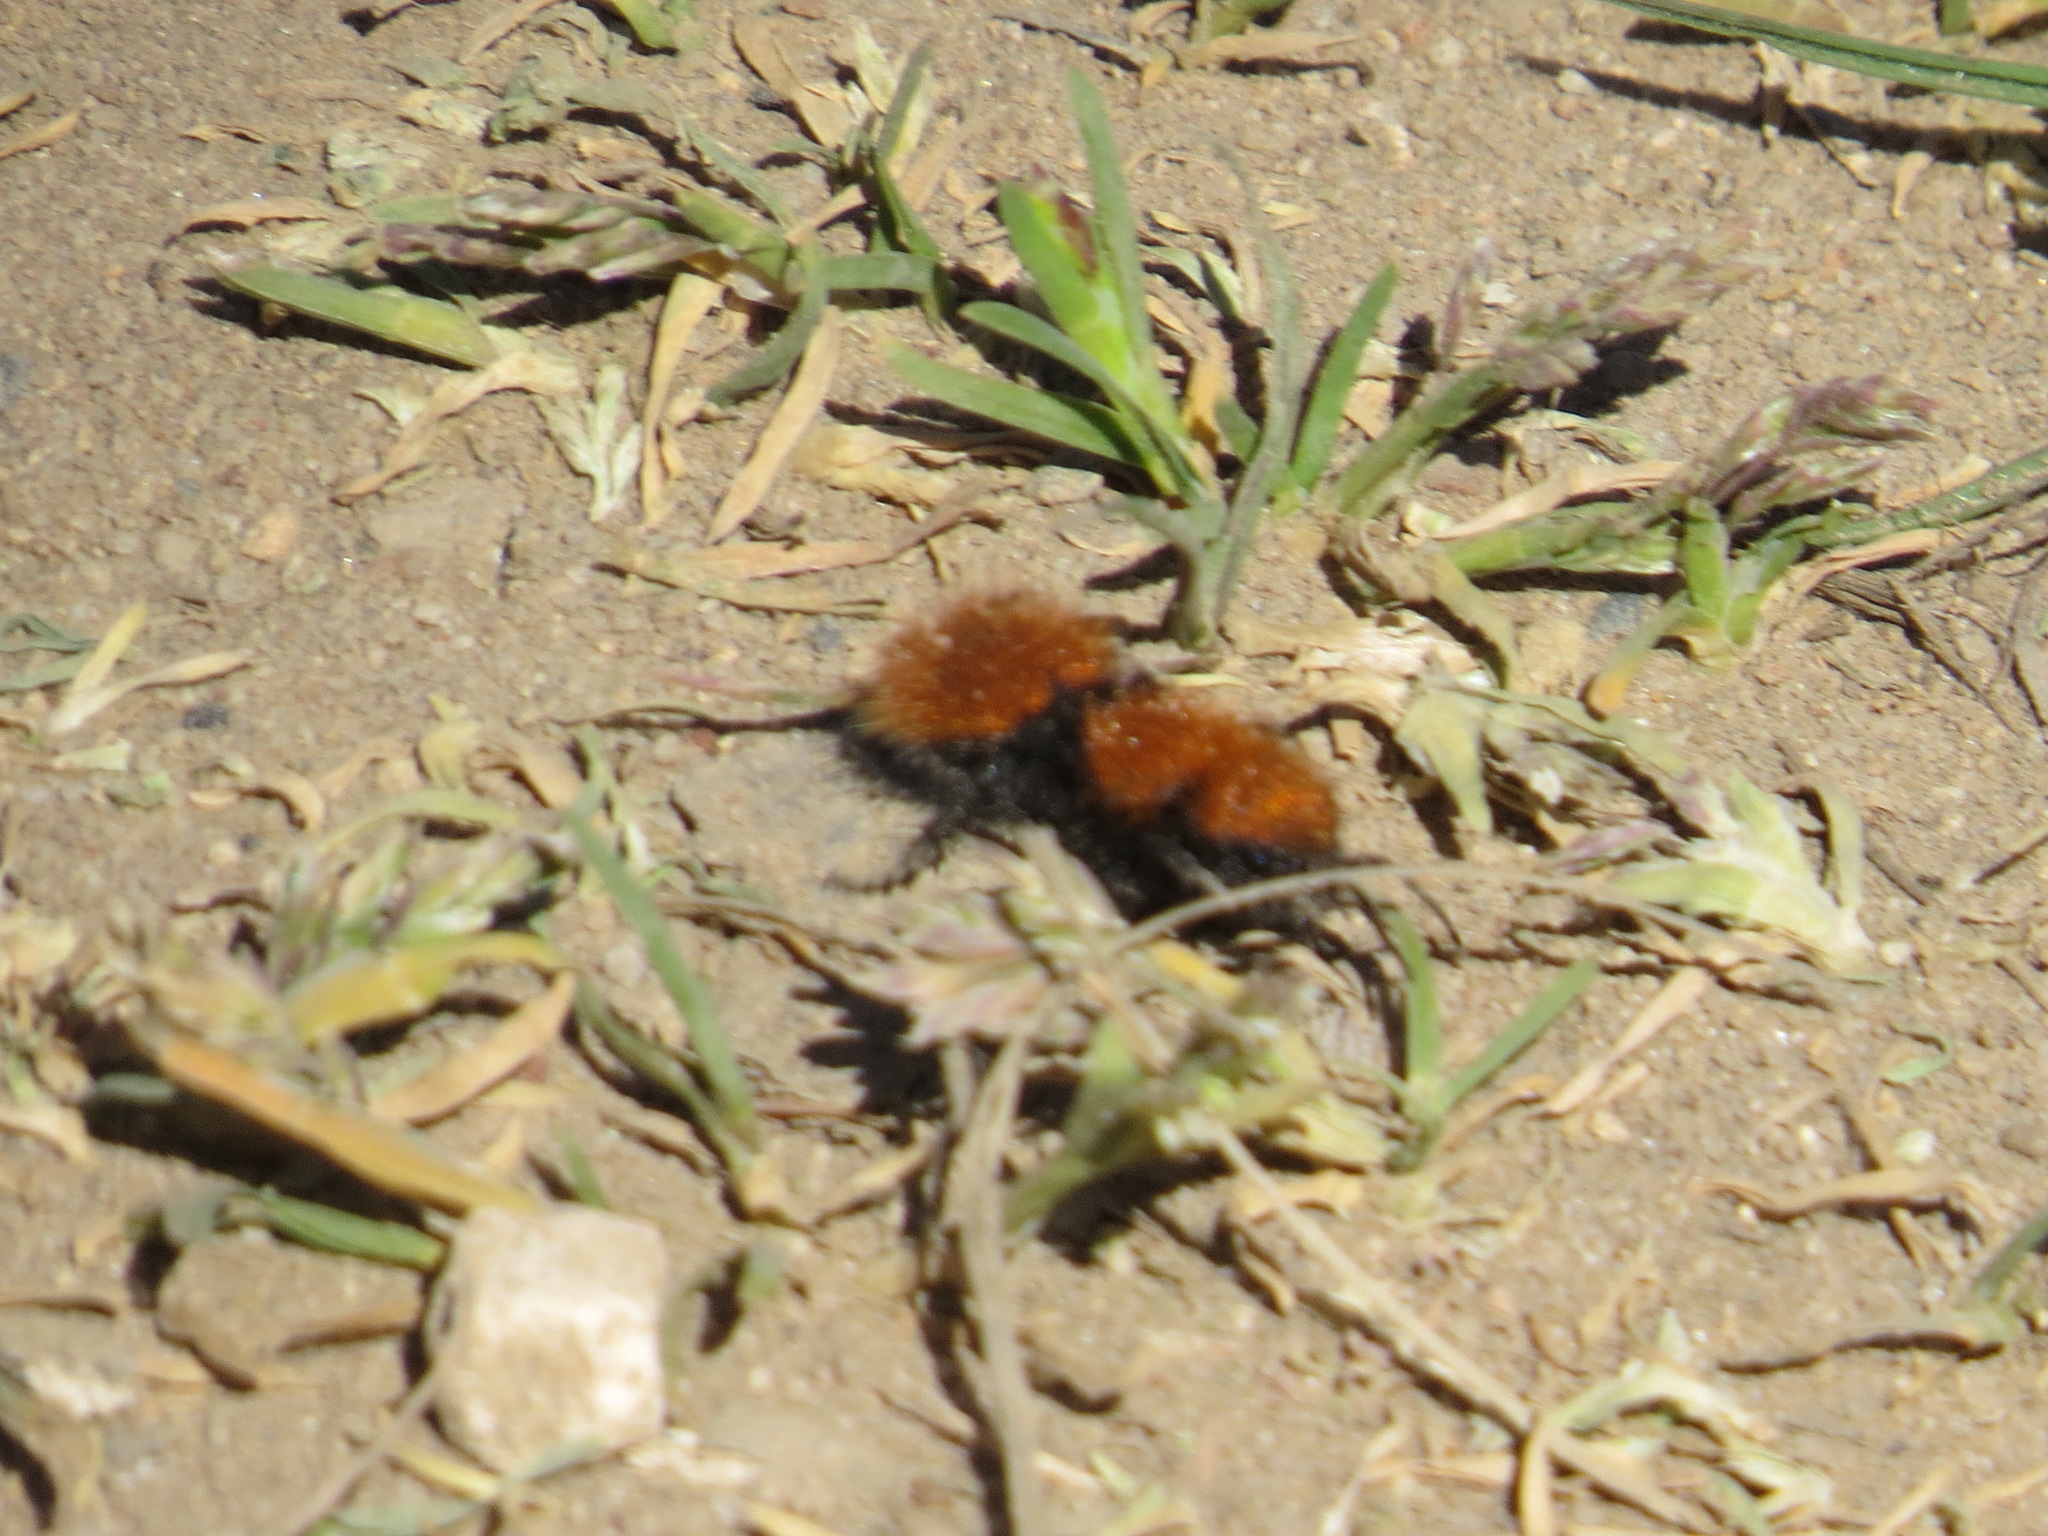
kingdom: Animalia
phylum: Arthropoda
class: Insecta
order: Hymenoptera
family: Mutillidae
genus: Dasymutilla
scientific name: Dasymutilla
